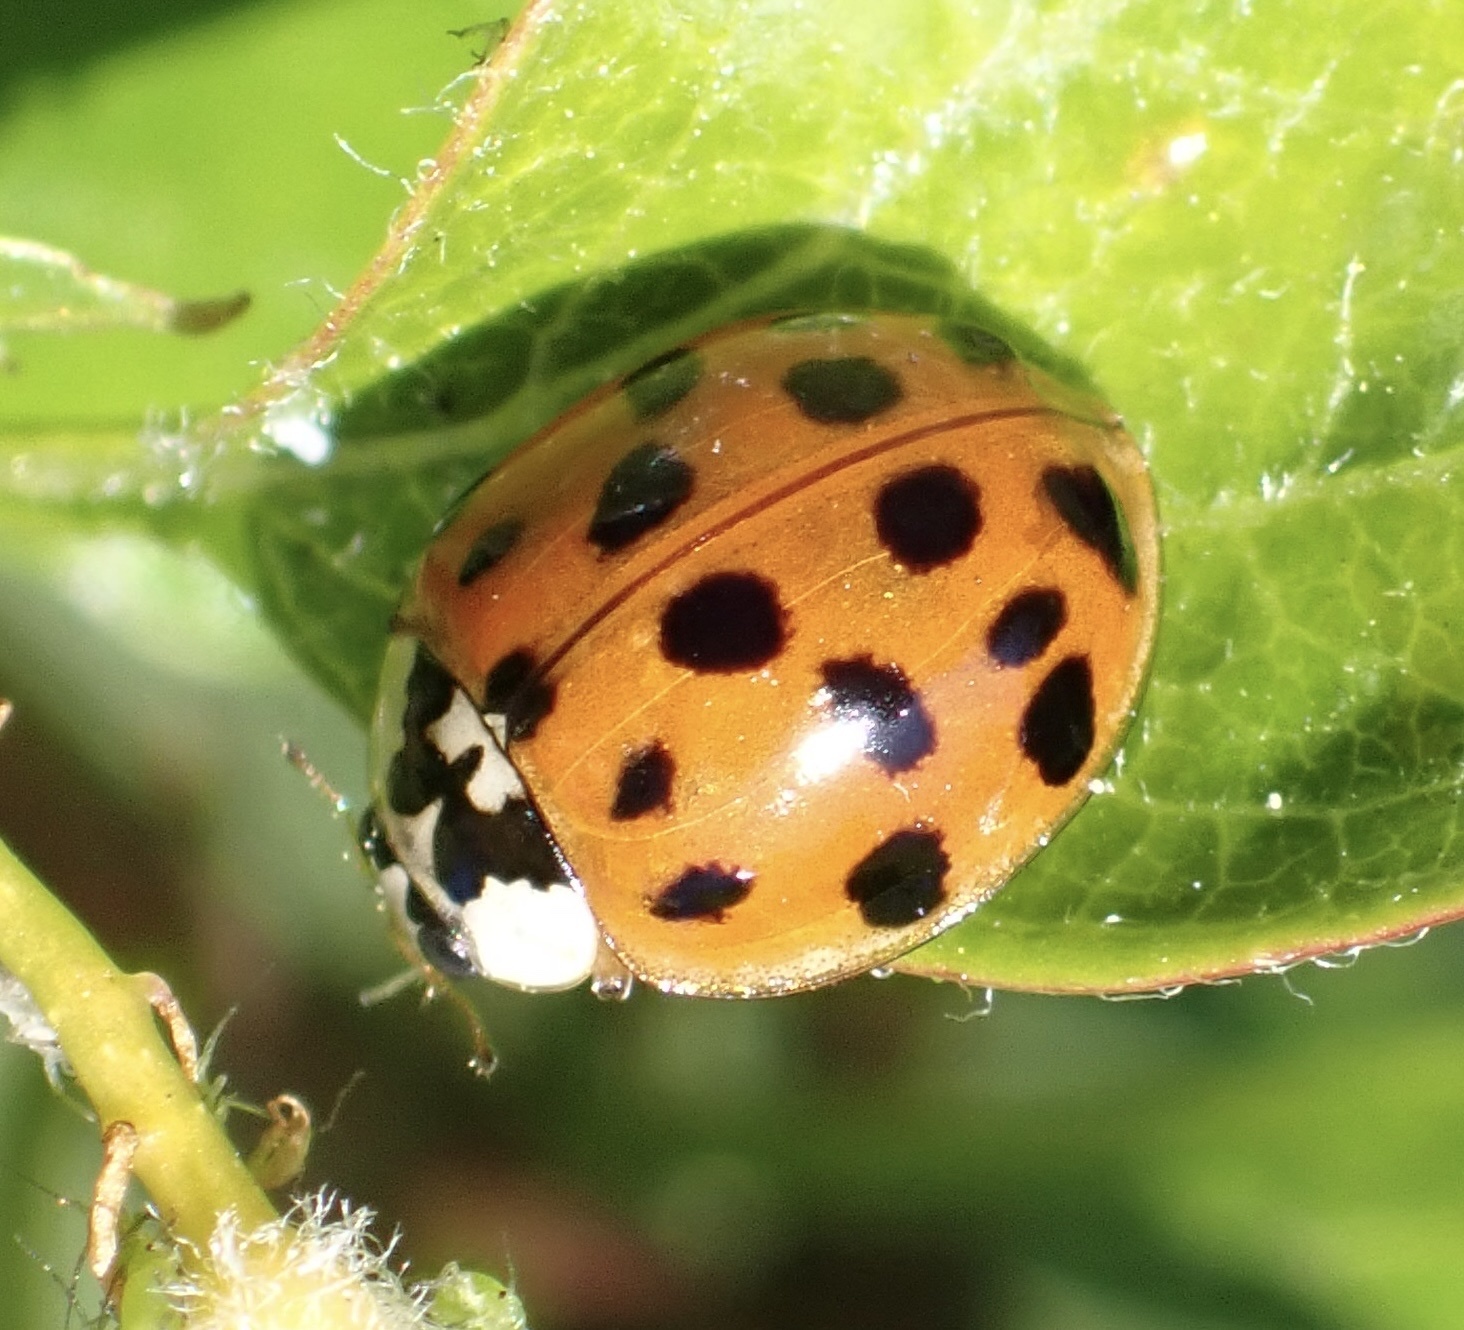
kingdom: Animalia
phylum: Arthropoda
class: Insecta
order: Coleoptera
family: Coccinellidae
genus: Harmonia
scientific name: Harmonia axyridis
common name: Harlequin ladybird
